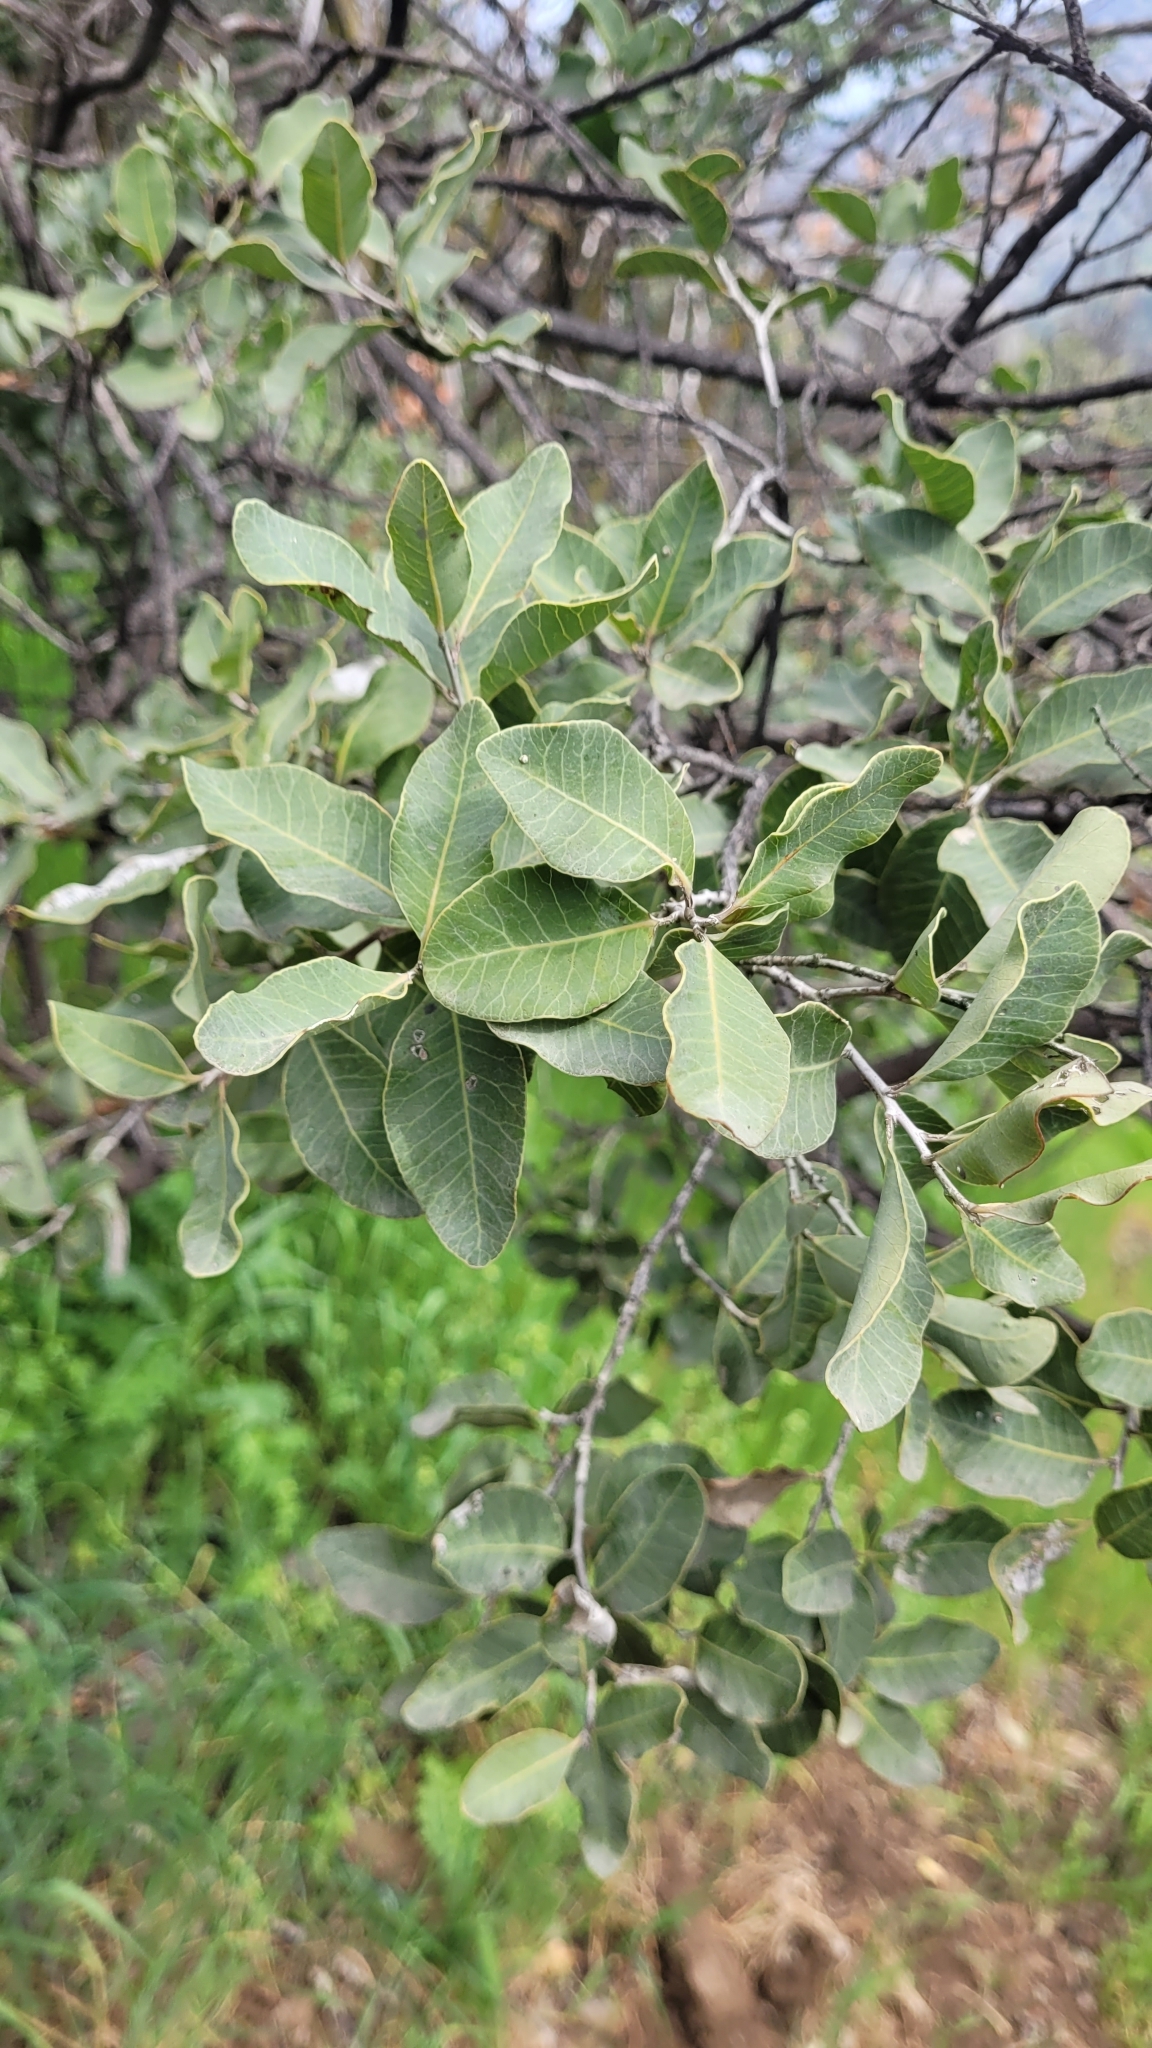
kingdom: Plantae
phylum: Tracheophyta
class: Magnoliopsida
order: Sapindales
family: Anacardiaceae
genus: Lithraea
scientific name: Lithraea caustica
